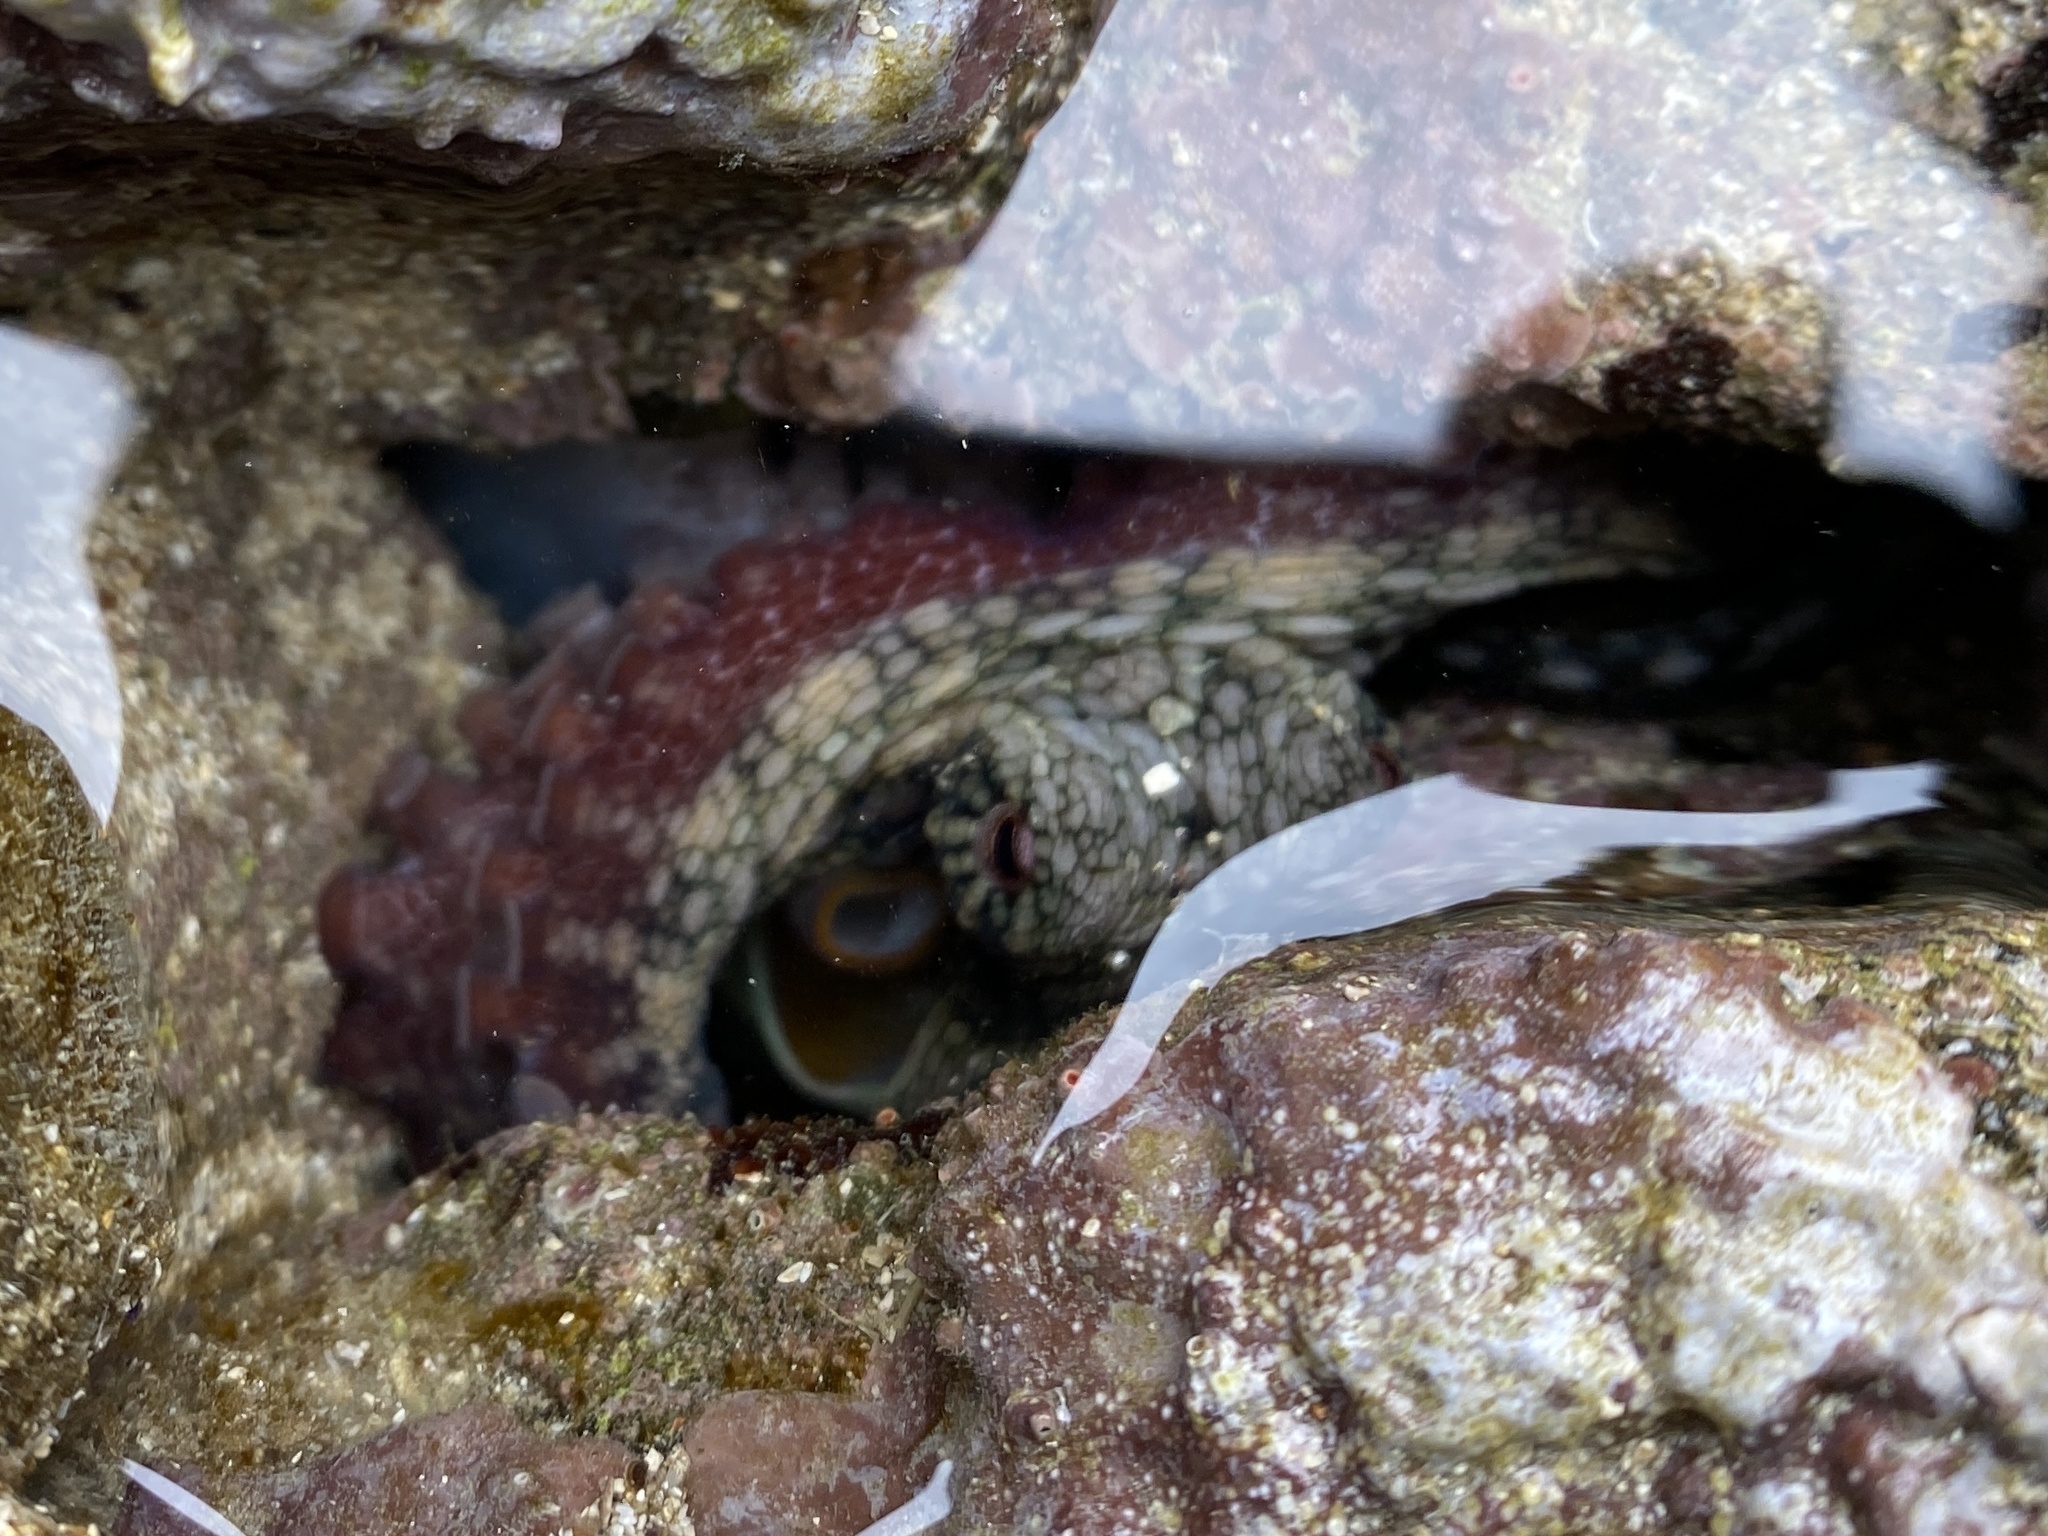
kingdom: Animalia
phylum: Mollusca
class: Cephalopoda
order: Octopoda
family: Octopodidae
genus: Octopus
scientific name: Octopus oculifer
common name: Reef octopus
